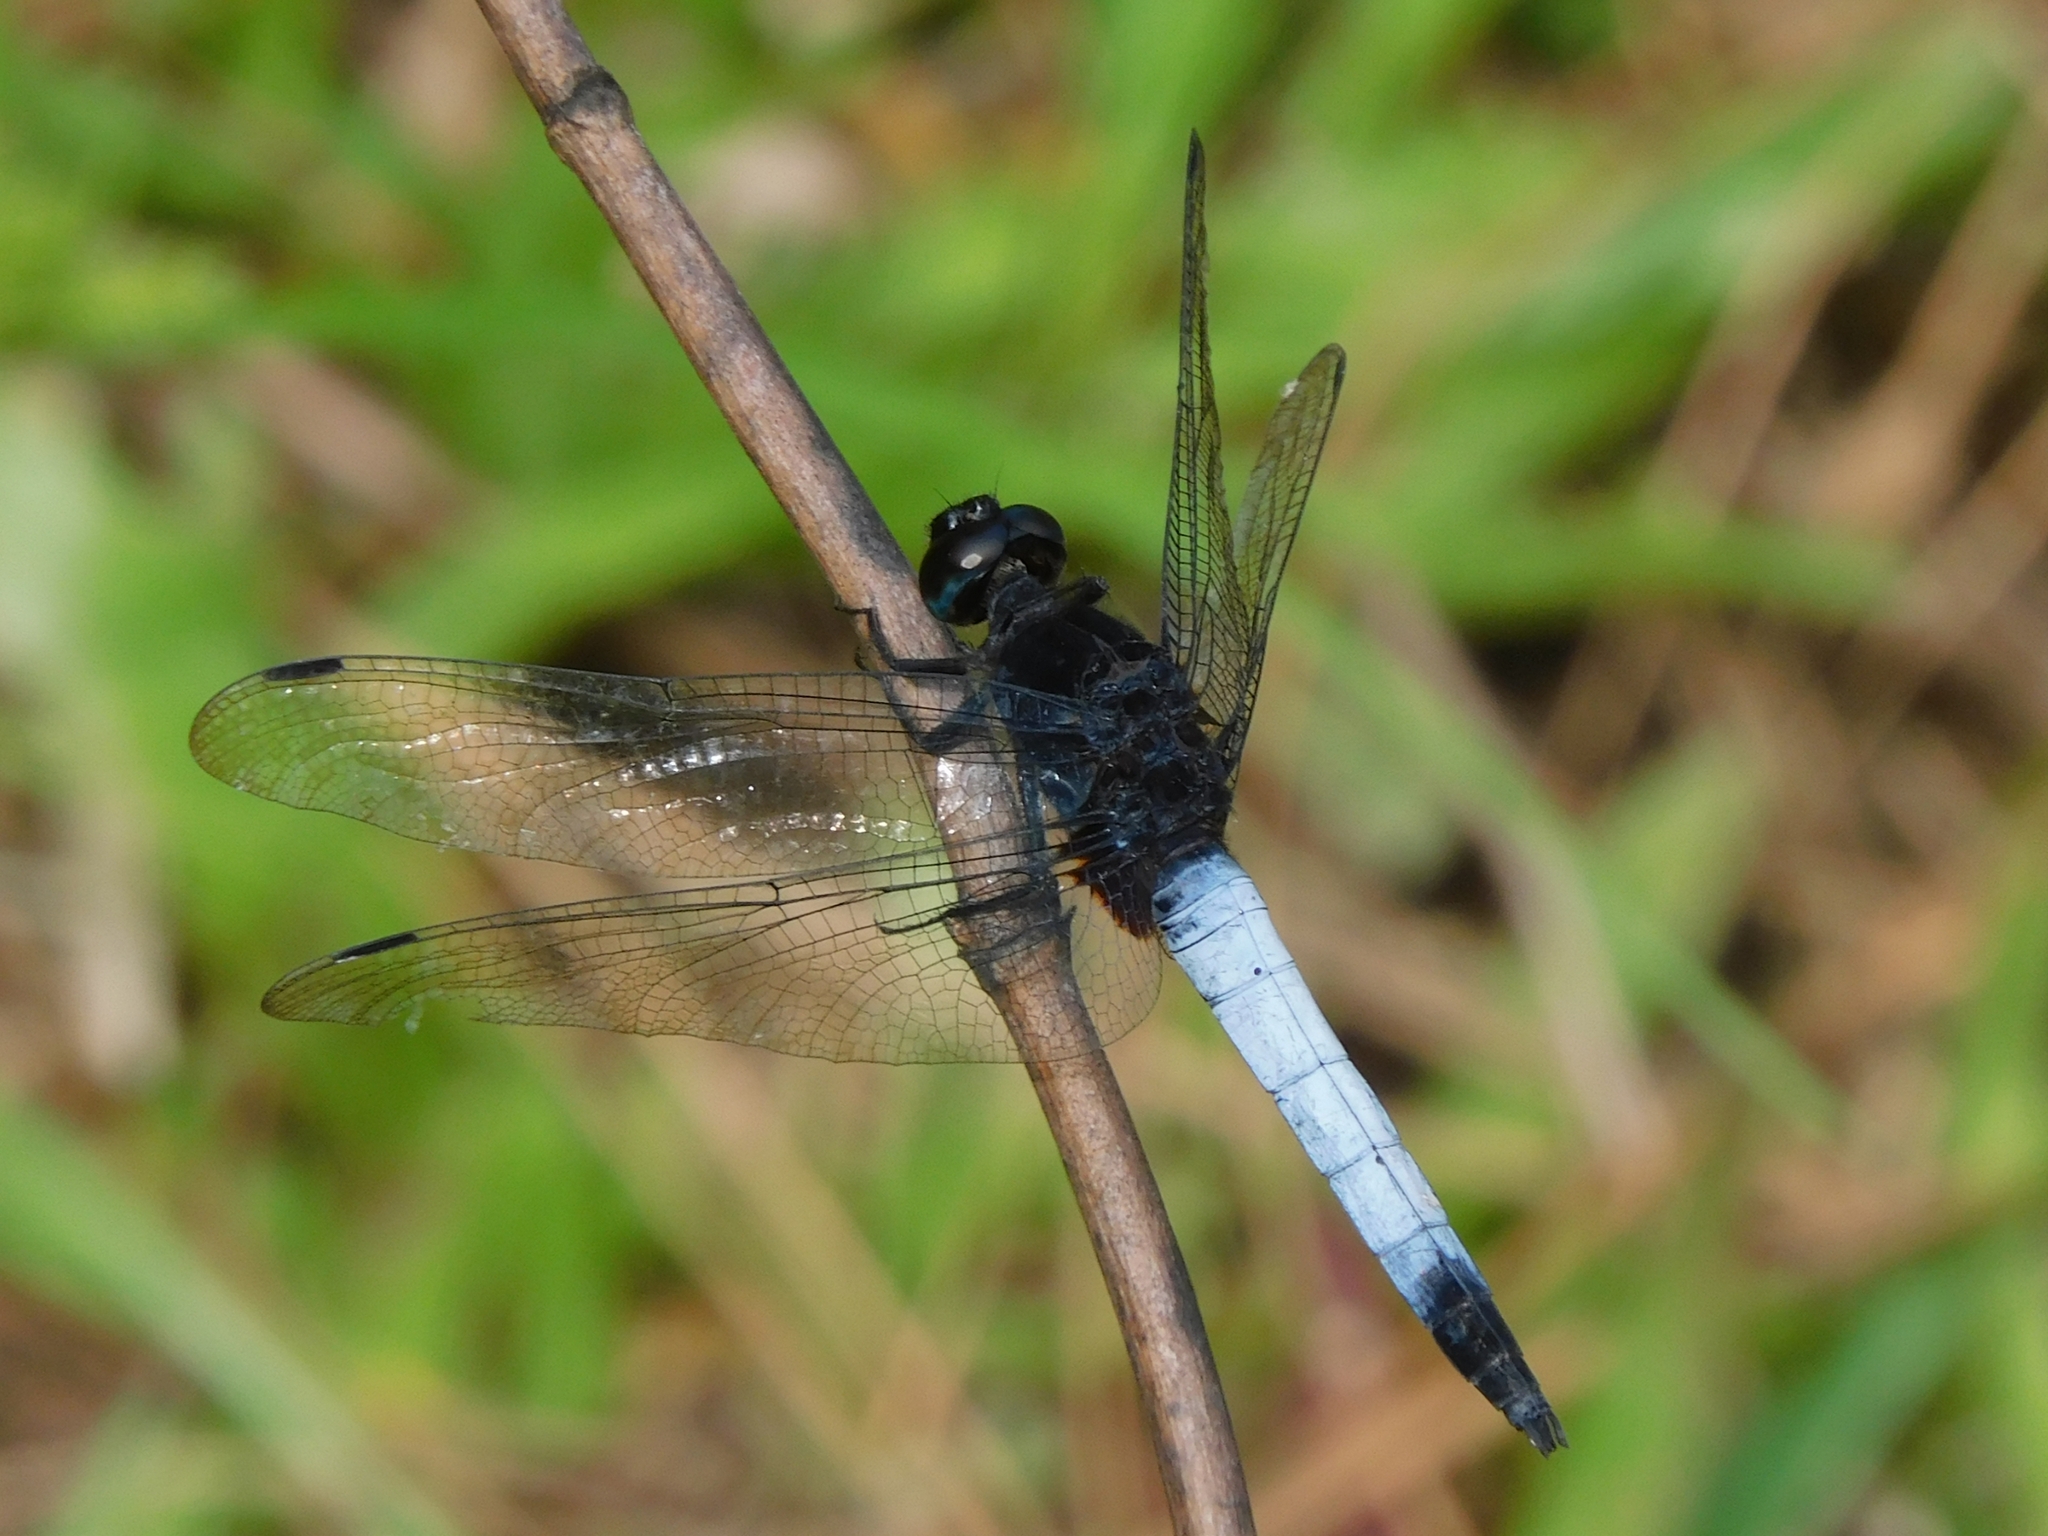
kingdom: Animalia
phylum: Arthropoda
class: Insecta
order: Odonata
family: Libellulidae
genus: Orthetrum
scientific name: Orthetrum triangulare
